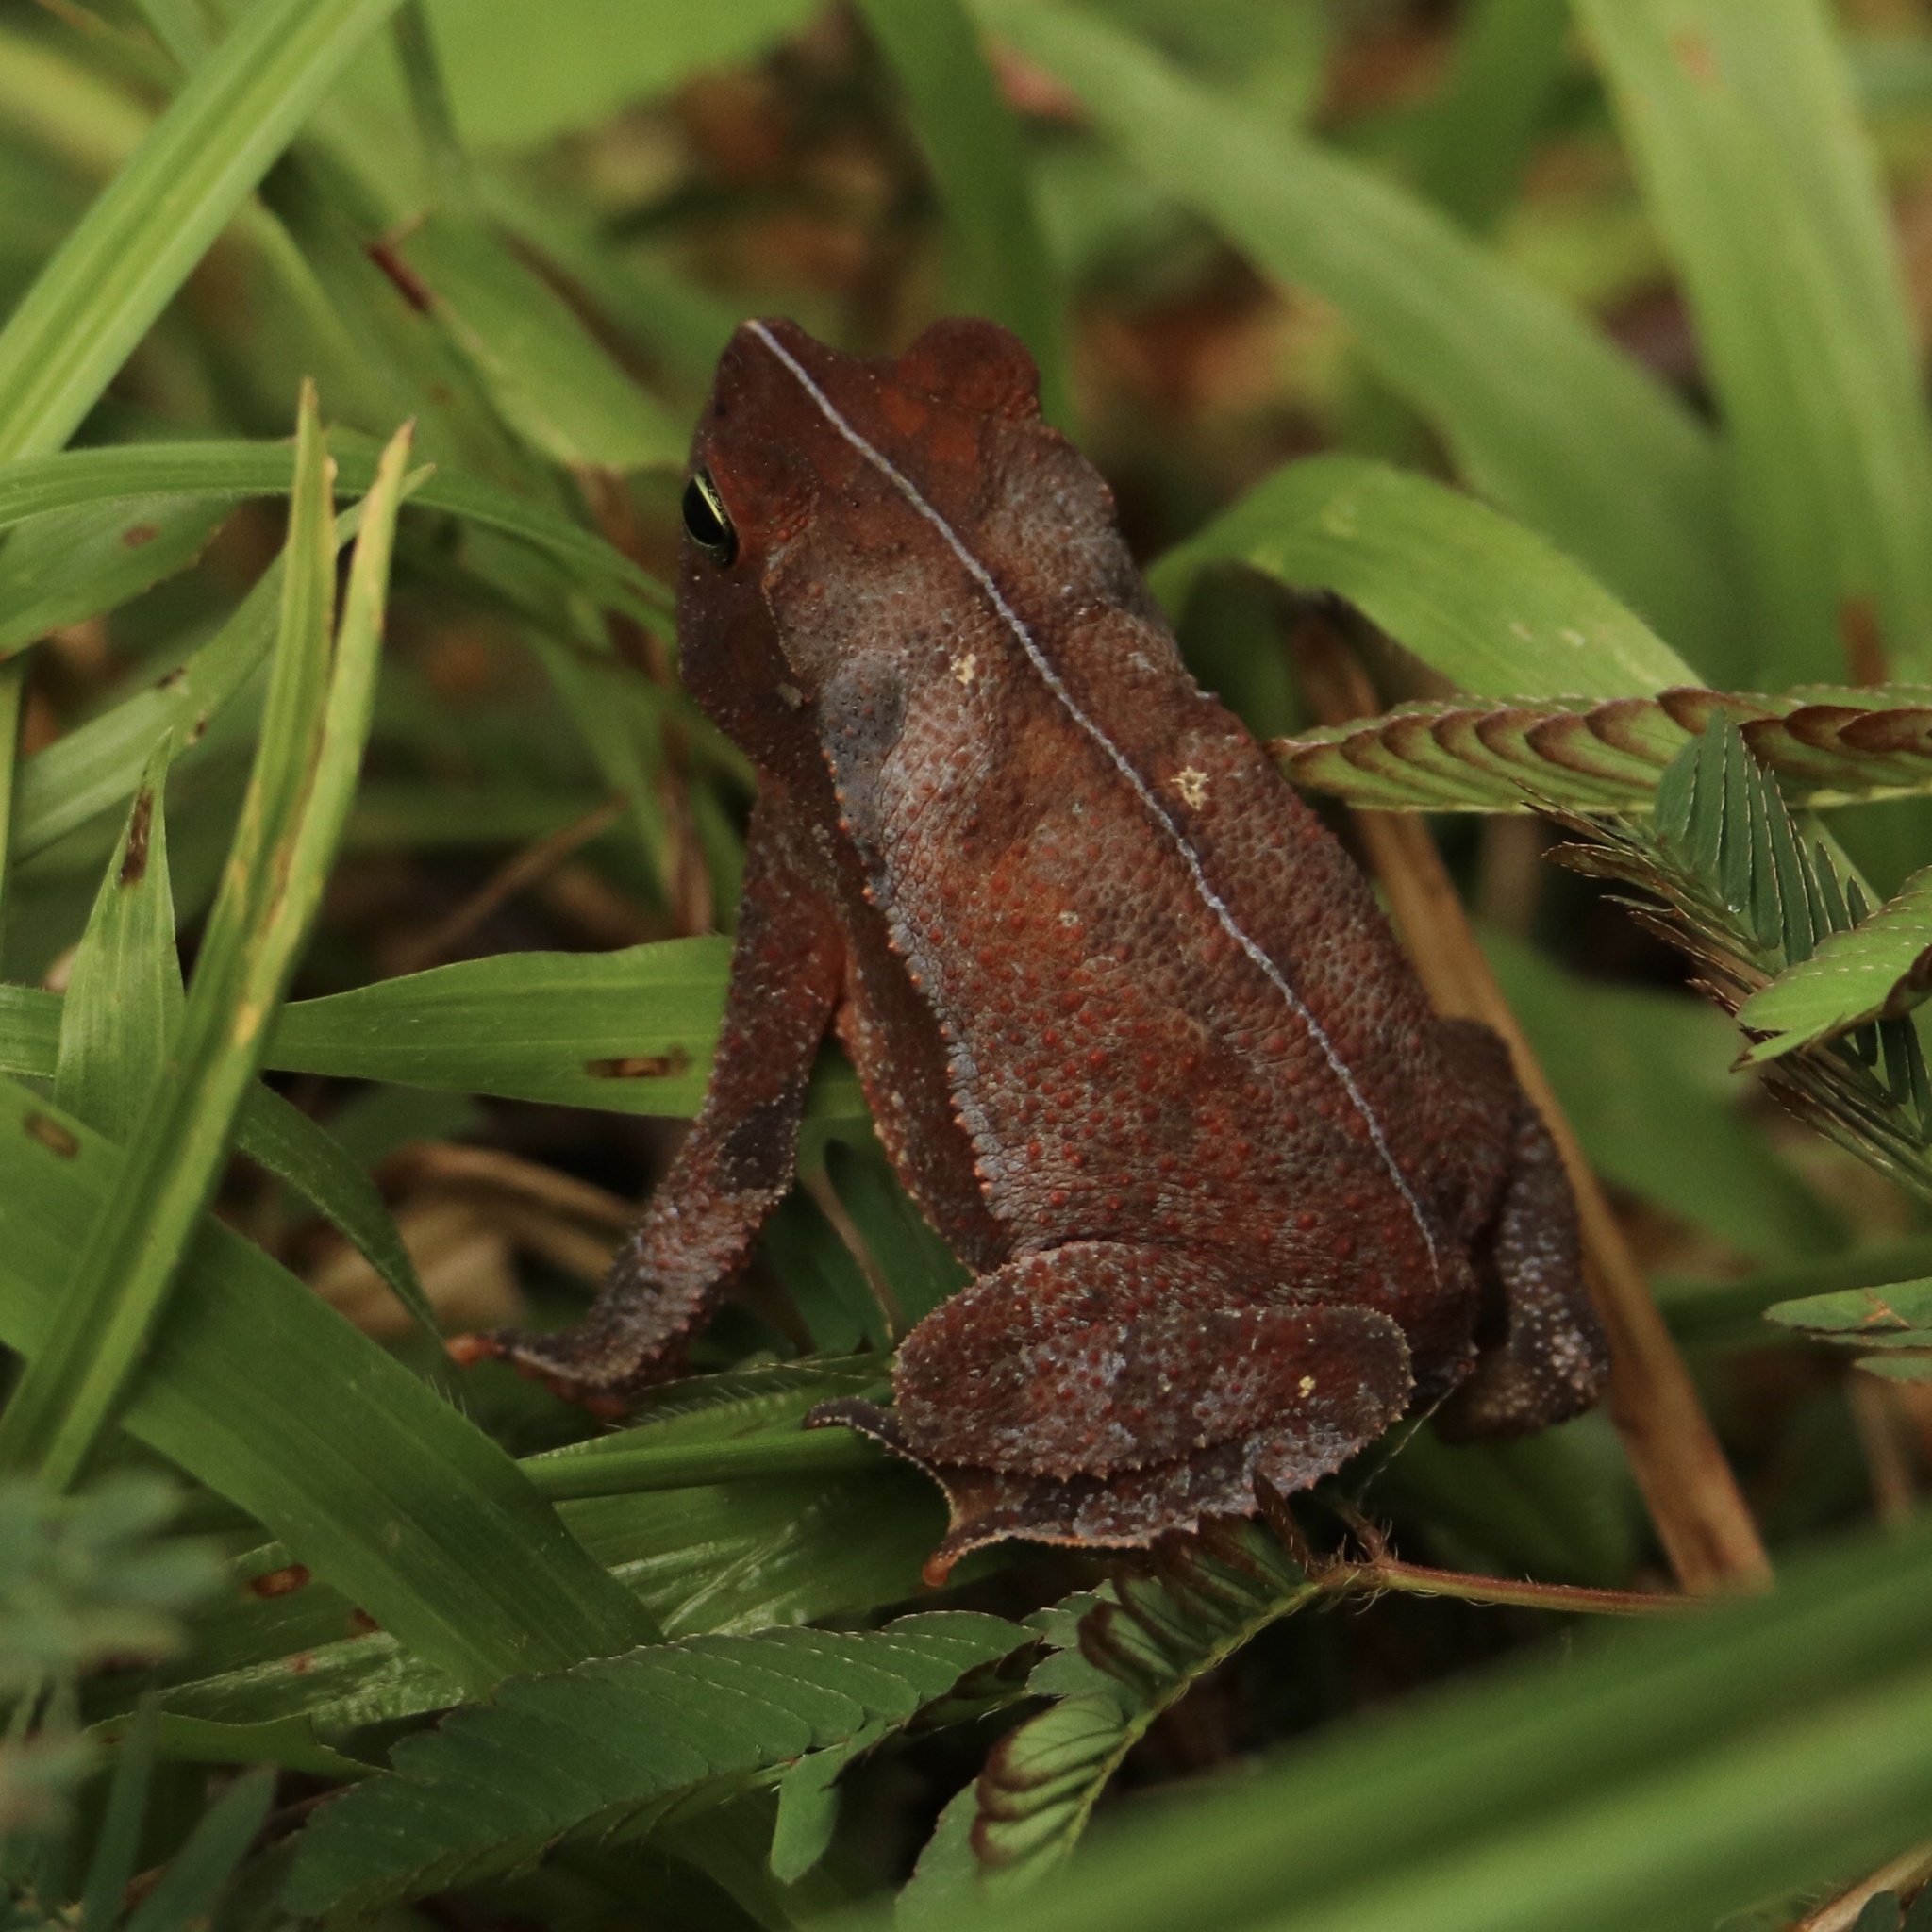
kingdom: Animalia
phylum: Chordata
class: Amphibia
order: Anura
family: Bufonidae
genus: Rhinella
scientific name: Rhinella alata
